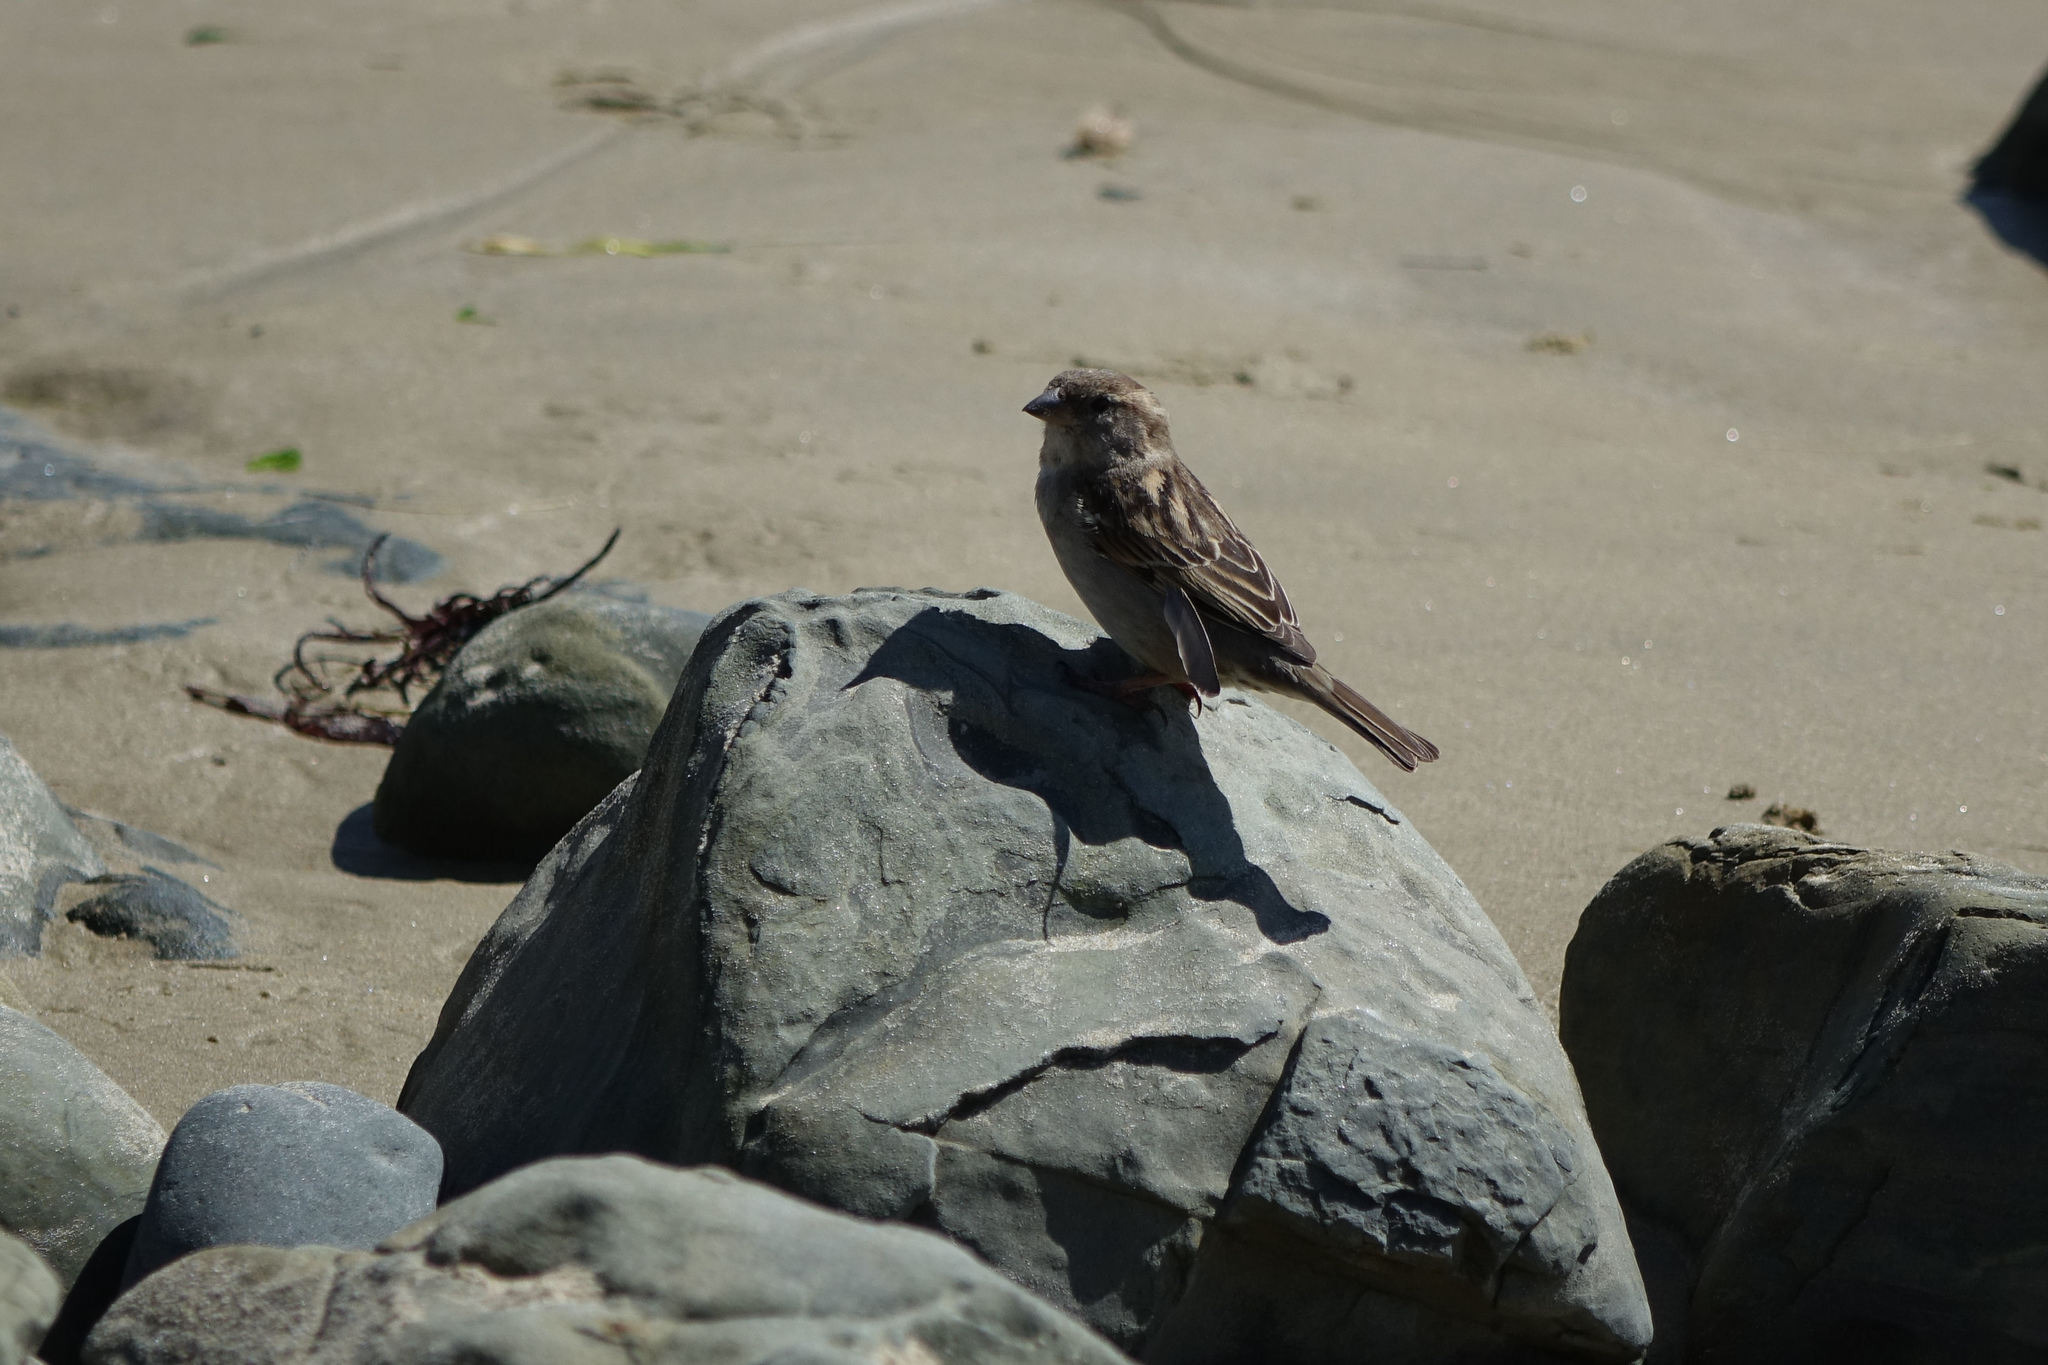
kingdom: Animalia
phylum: Chordata
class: Aves
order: Passeriformes
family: Passeridae
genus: Passer
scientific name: Passer domesticus
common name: House sparrow
